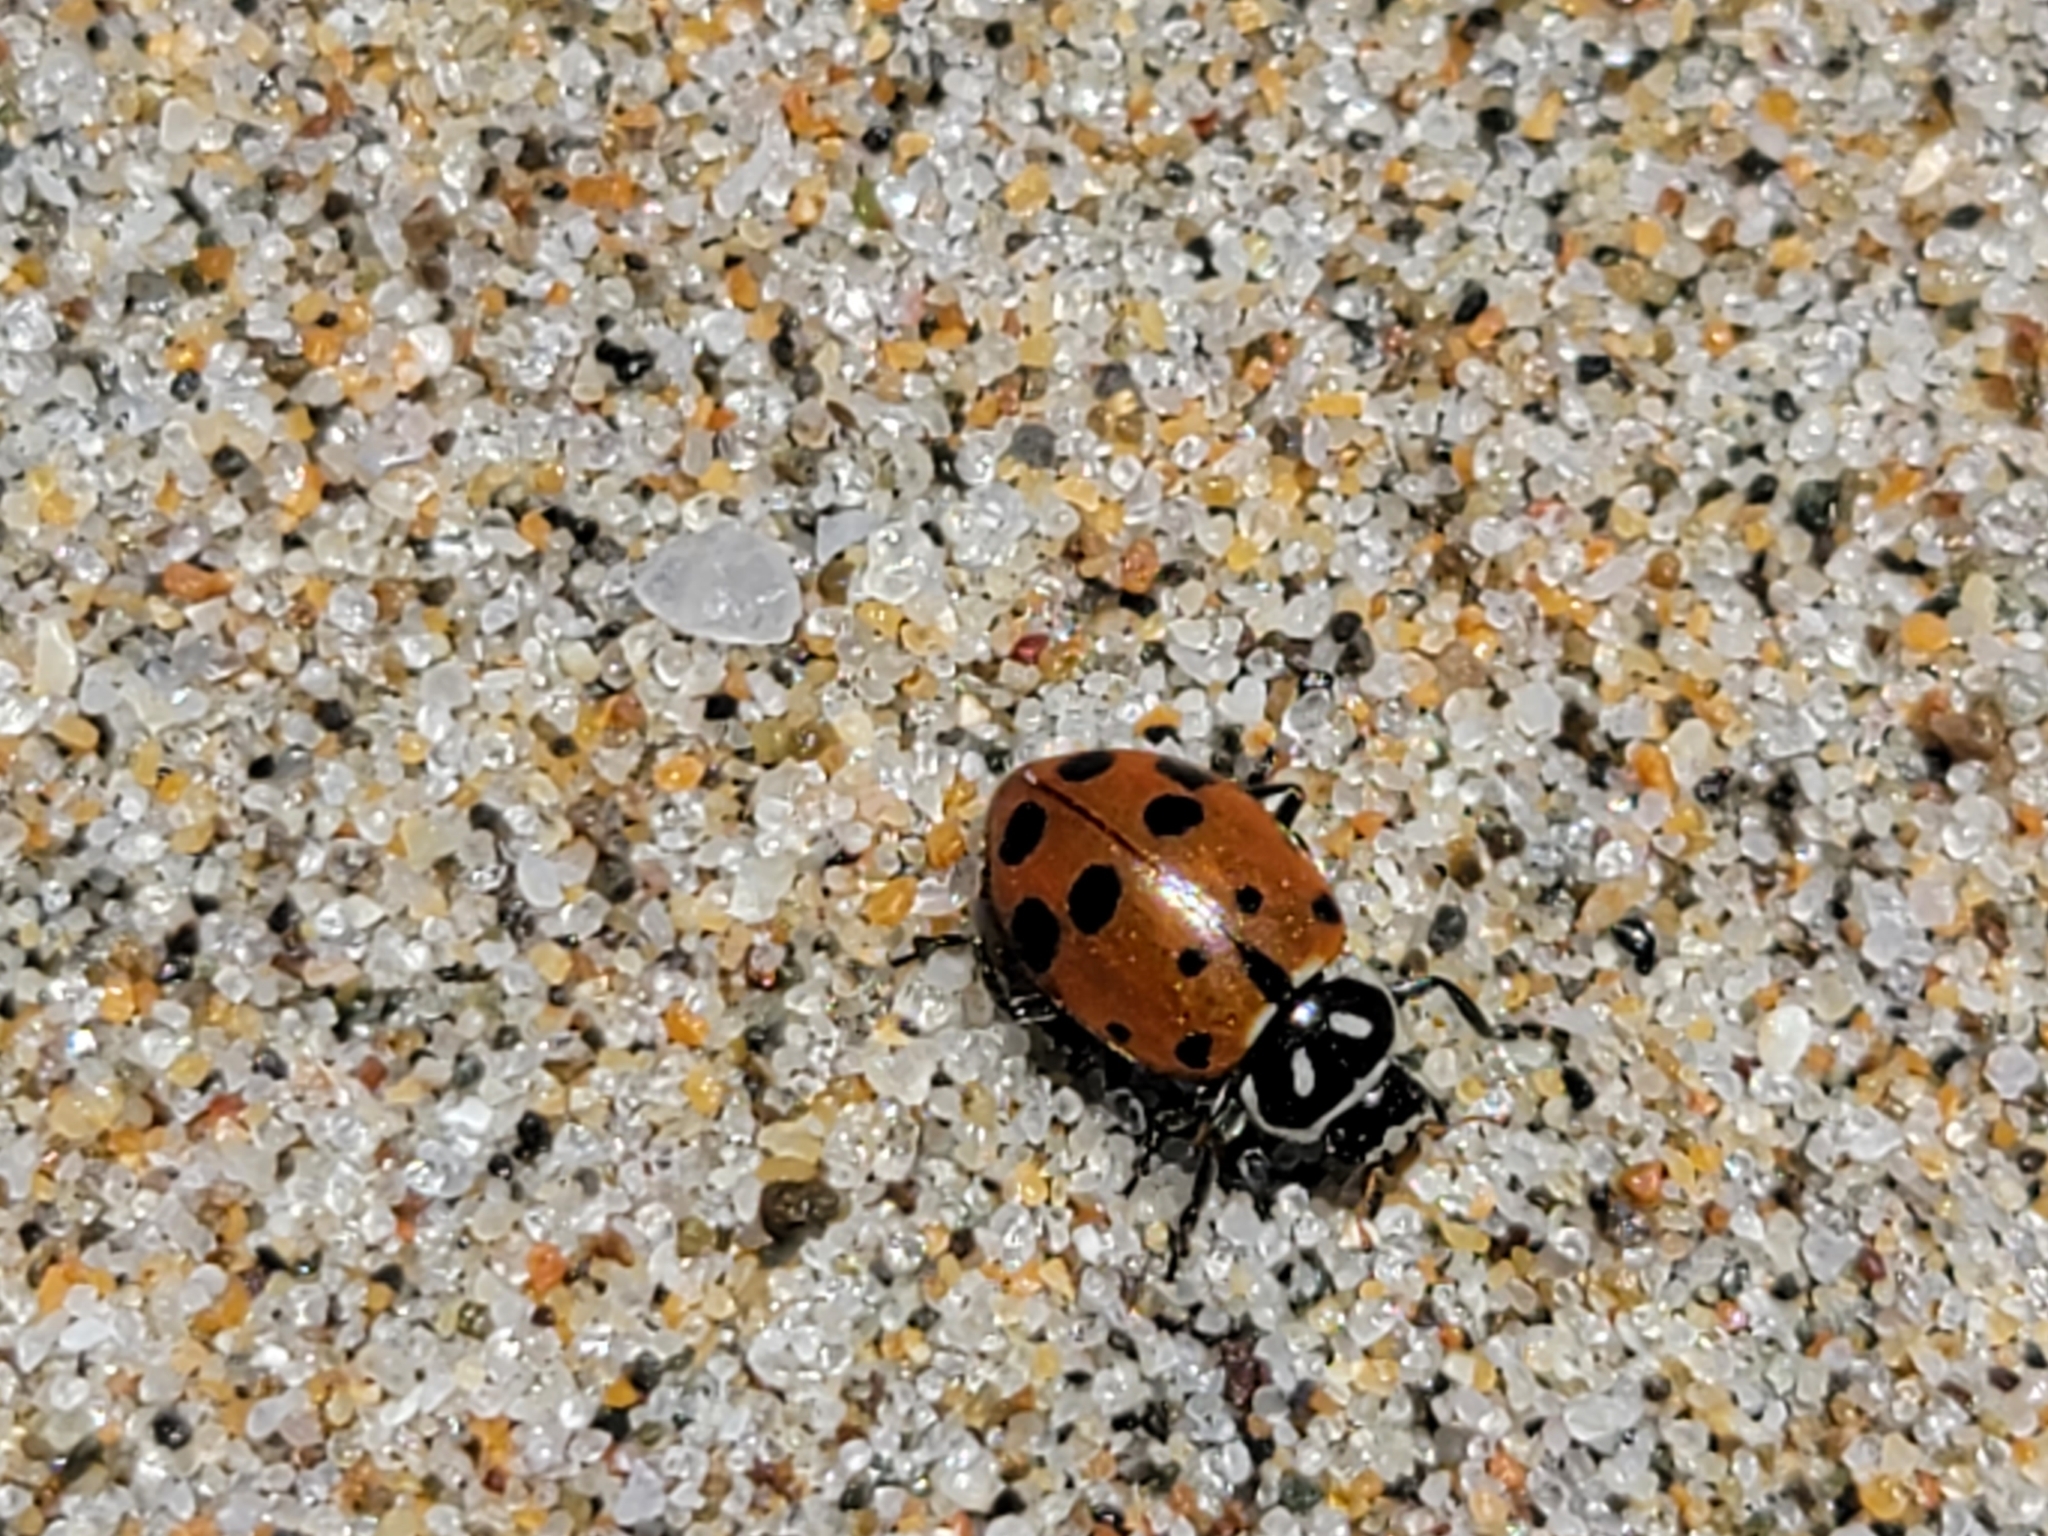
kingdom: Animalia
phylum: Arthropoda
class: Insecta
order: Coleoptera
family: Coccinellidae
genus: Hippodamia
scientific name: Hippodamia convergens
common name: Convergent lady beetle
